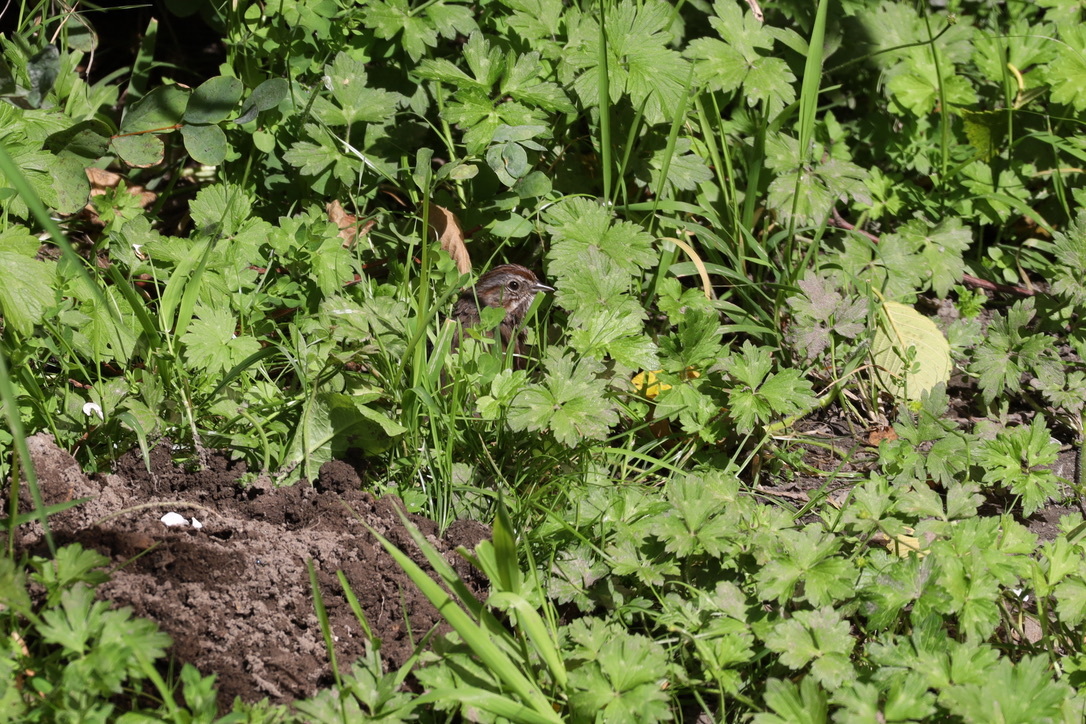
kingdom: Animalia
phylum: Chordata
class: Aves
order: Passeriformes
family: Passerellidae
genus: Melospiza
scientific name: Melospiza melodia
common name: Song sparrow
